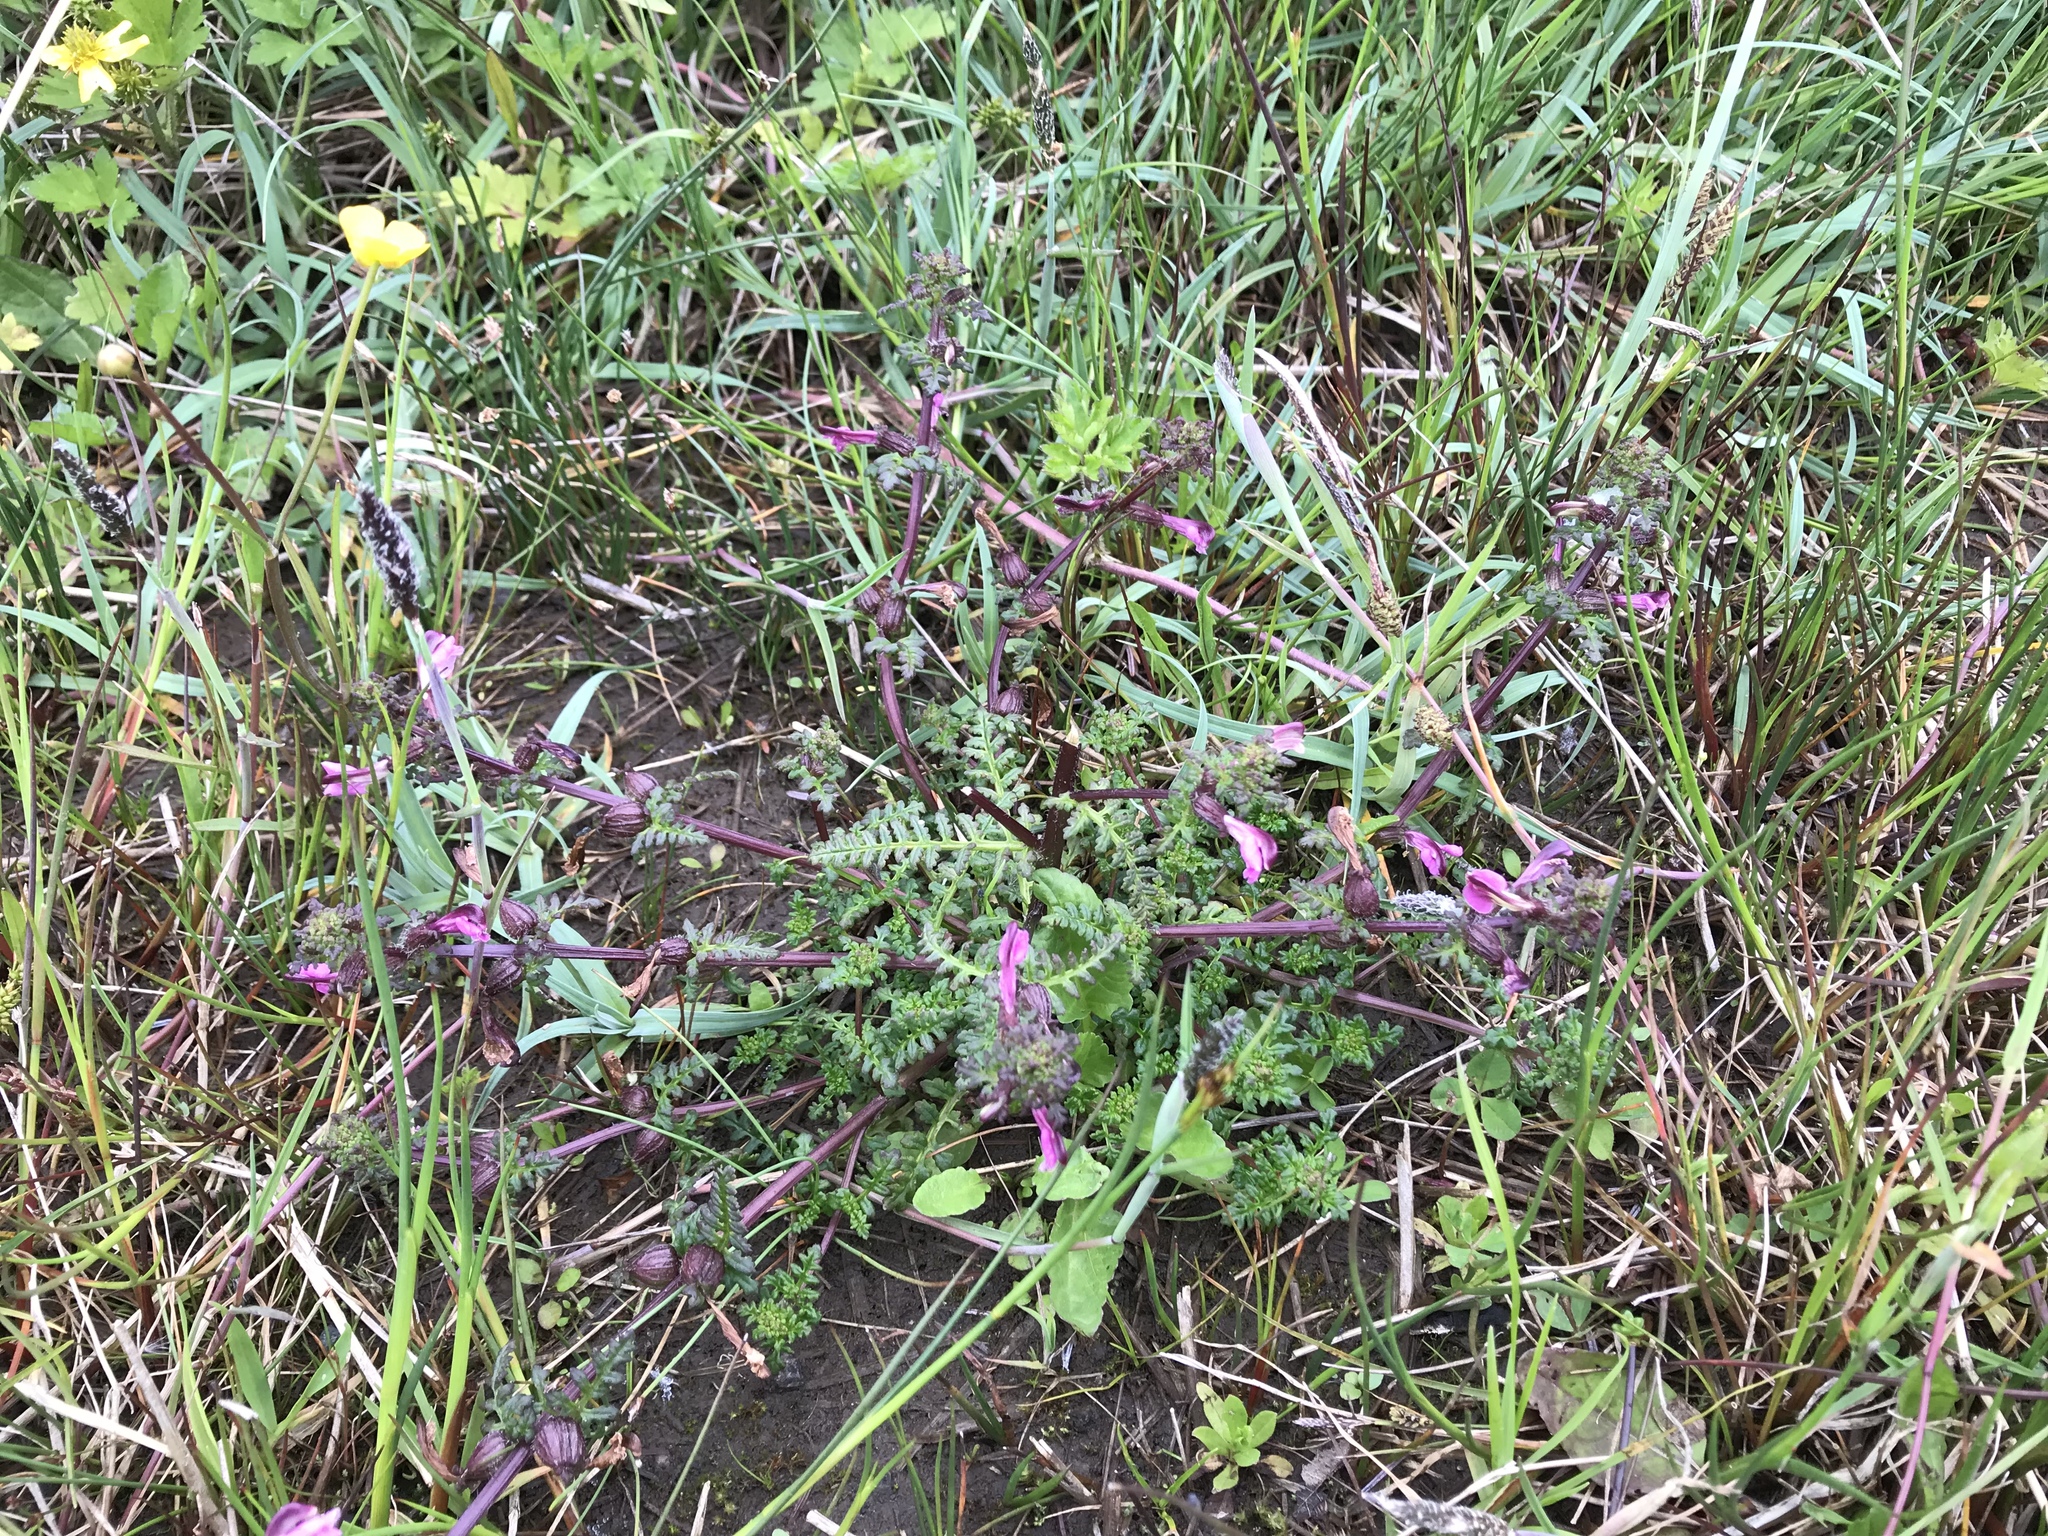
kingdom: Plantae
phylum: Tracheophyta
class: Magnoliopsida
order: Lamiales
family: Orobanchaceae
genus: Pedicularis
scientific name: Pedicularis palustris
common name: Marsh lousewort
